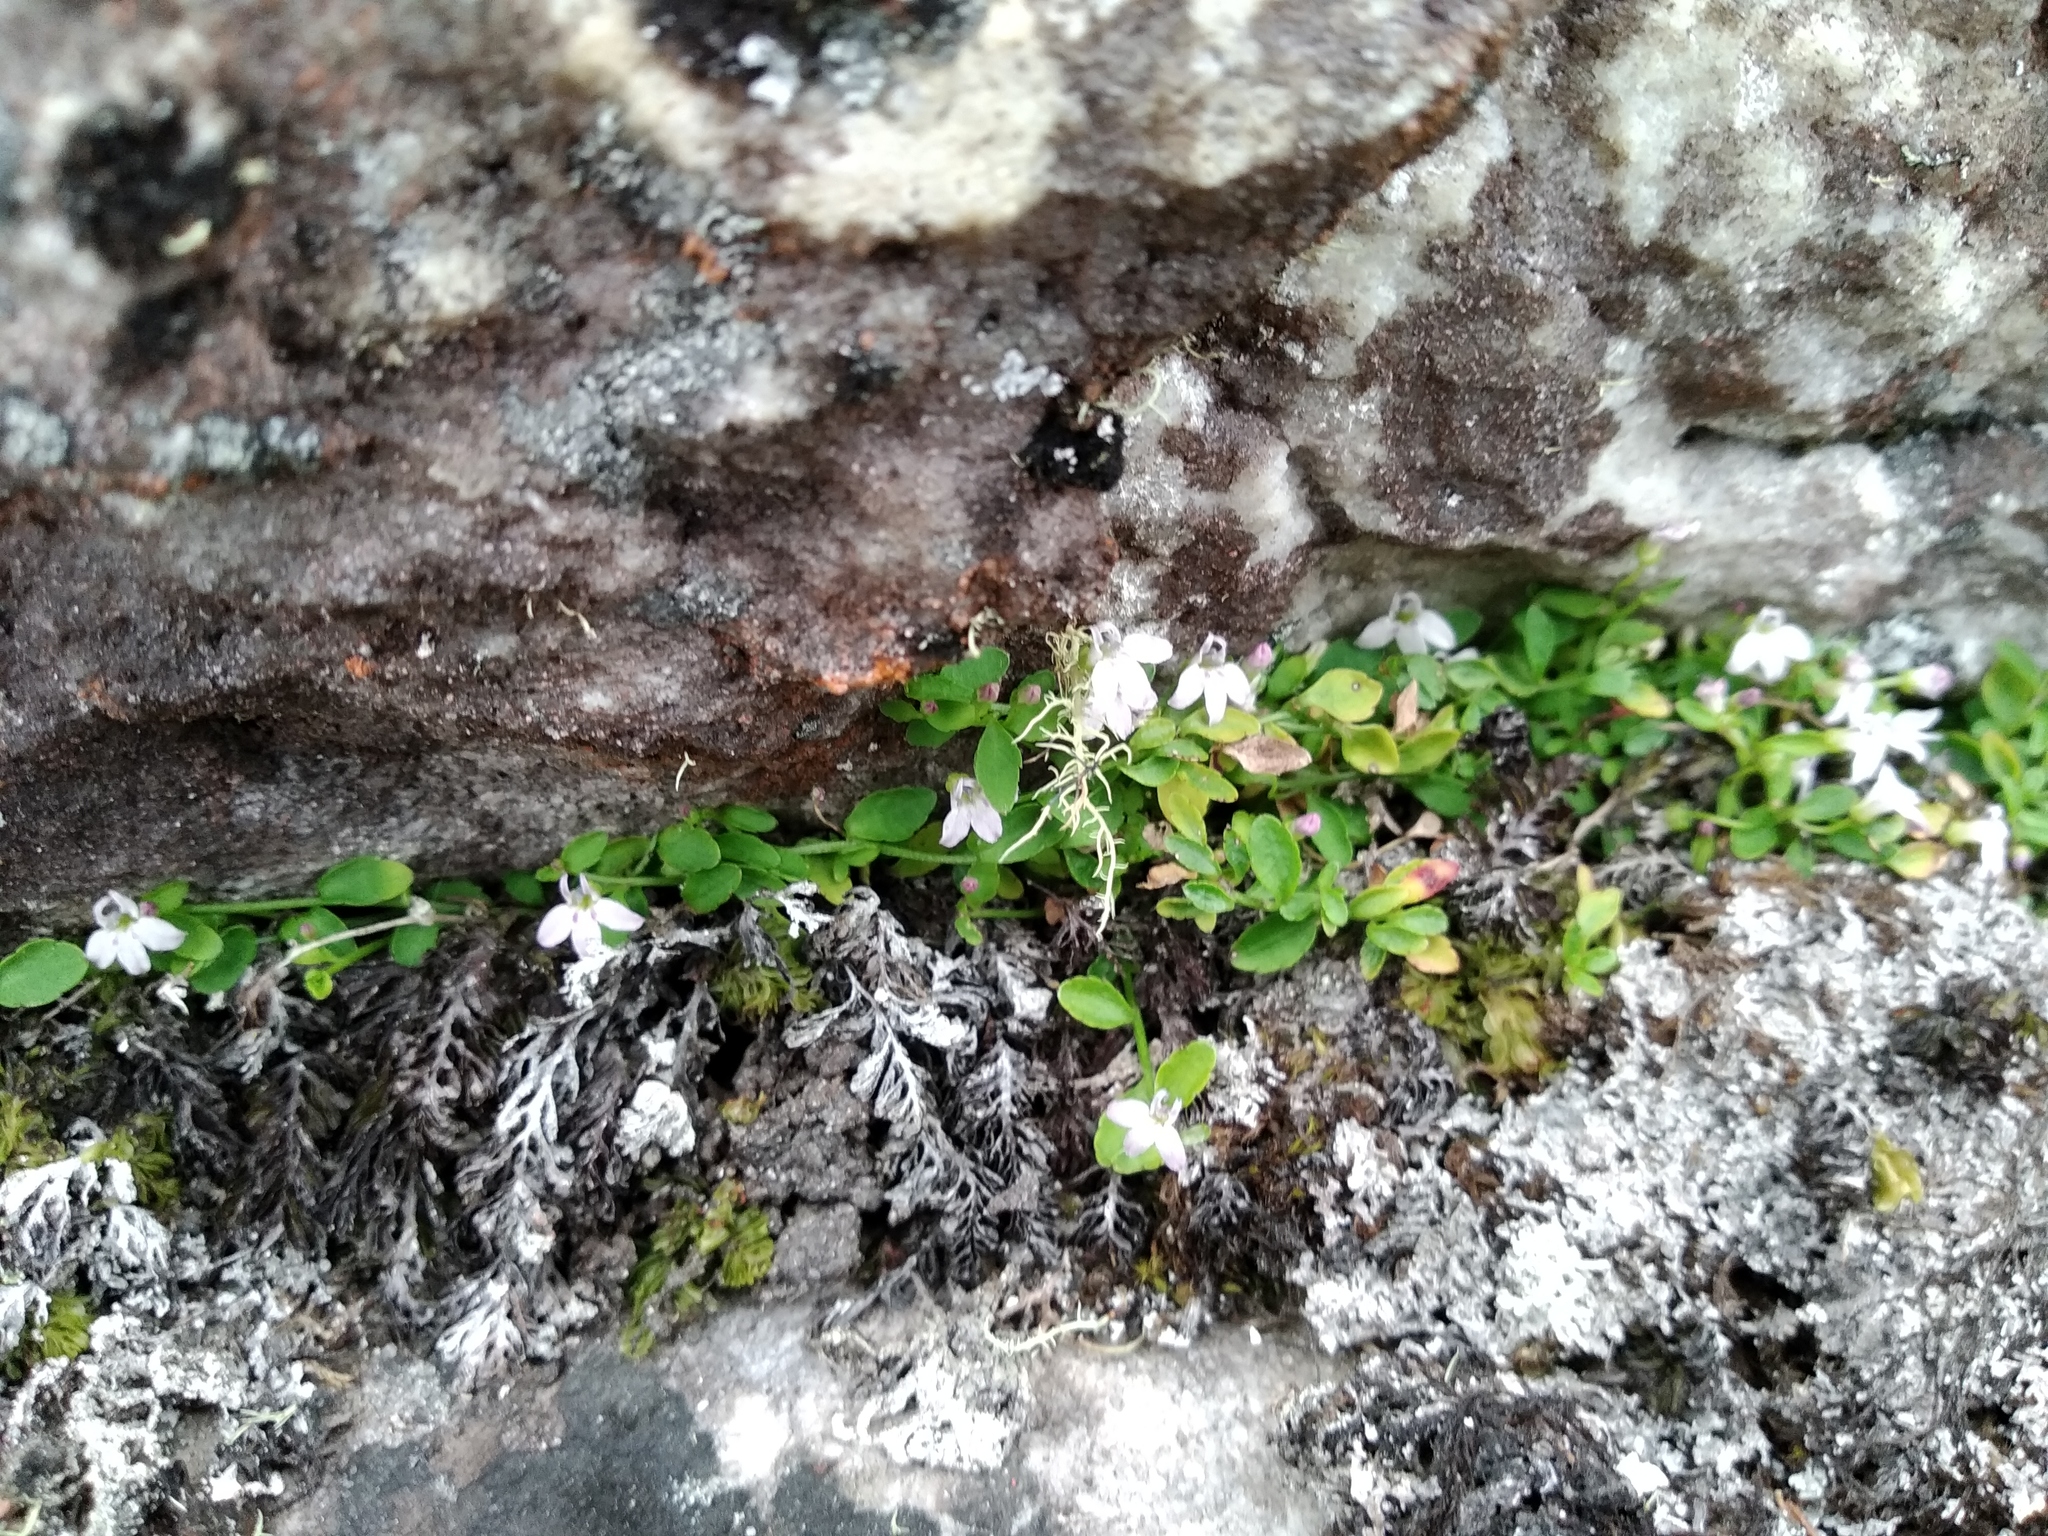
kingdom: Plantae
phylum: Tracheophyta
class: Magnoliopsida
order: Asterales
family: Campanulaceae
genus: Unigenes
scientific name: Unigenes humifusa
